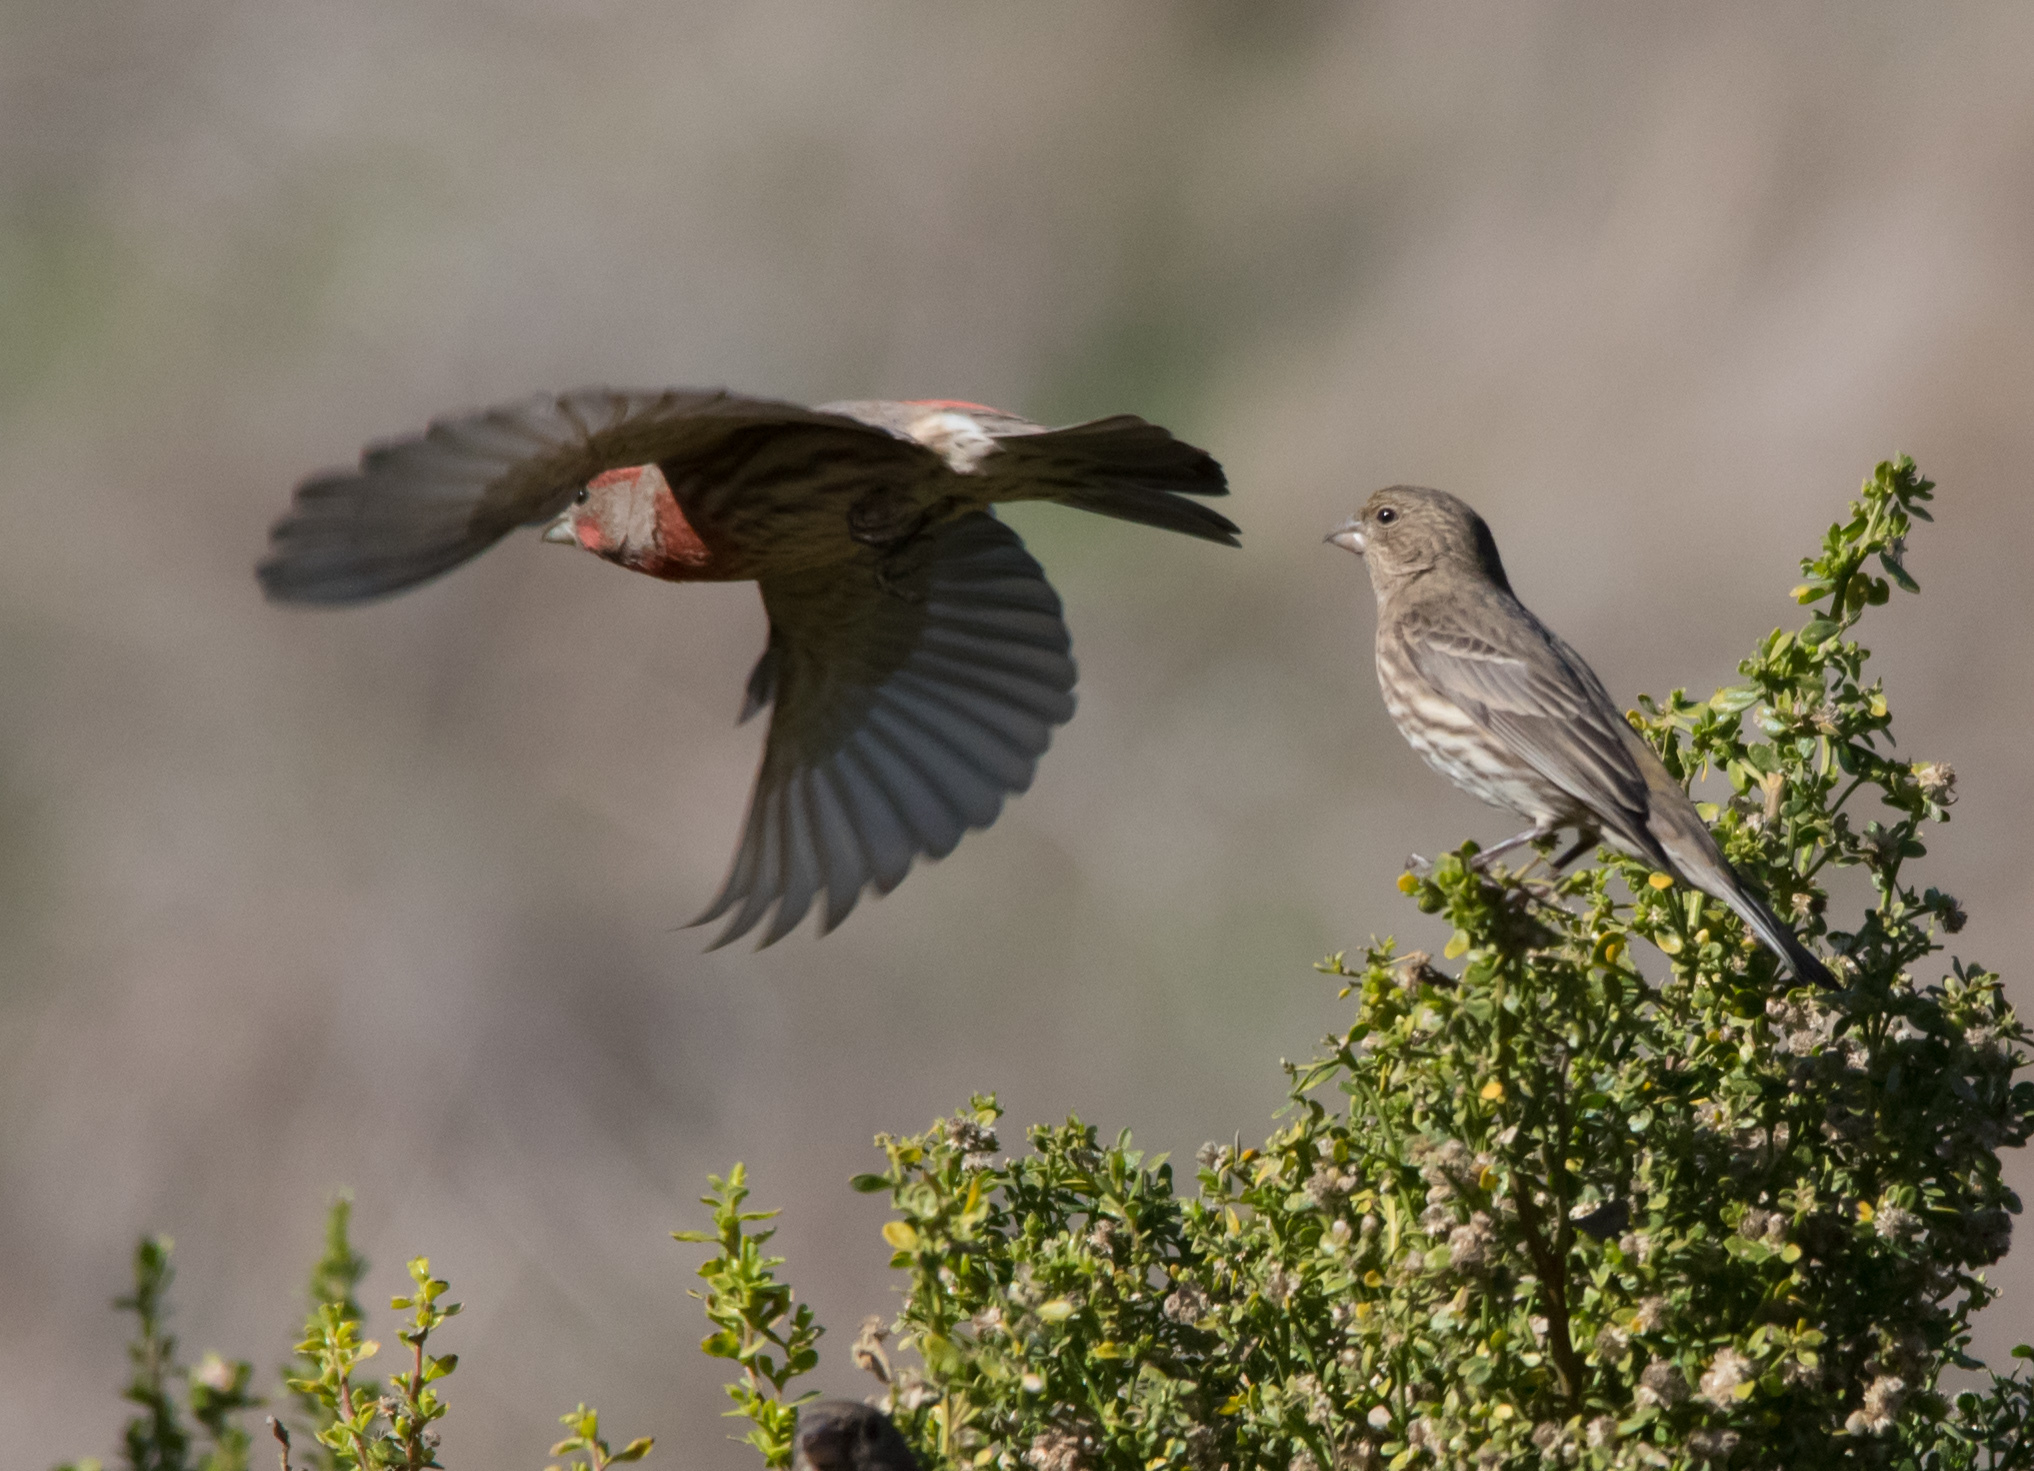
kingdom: Animalia
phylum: Chordata
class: Aves
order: Passeriformes
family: Fringillidae
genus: Haemorhous
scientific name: Haemorhous mexicanus
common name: House finch
